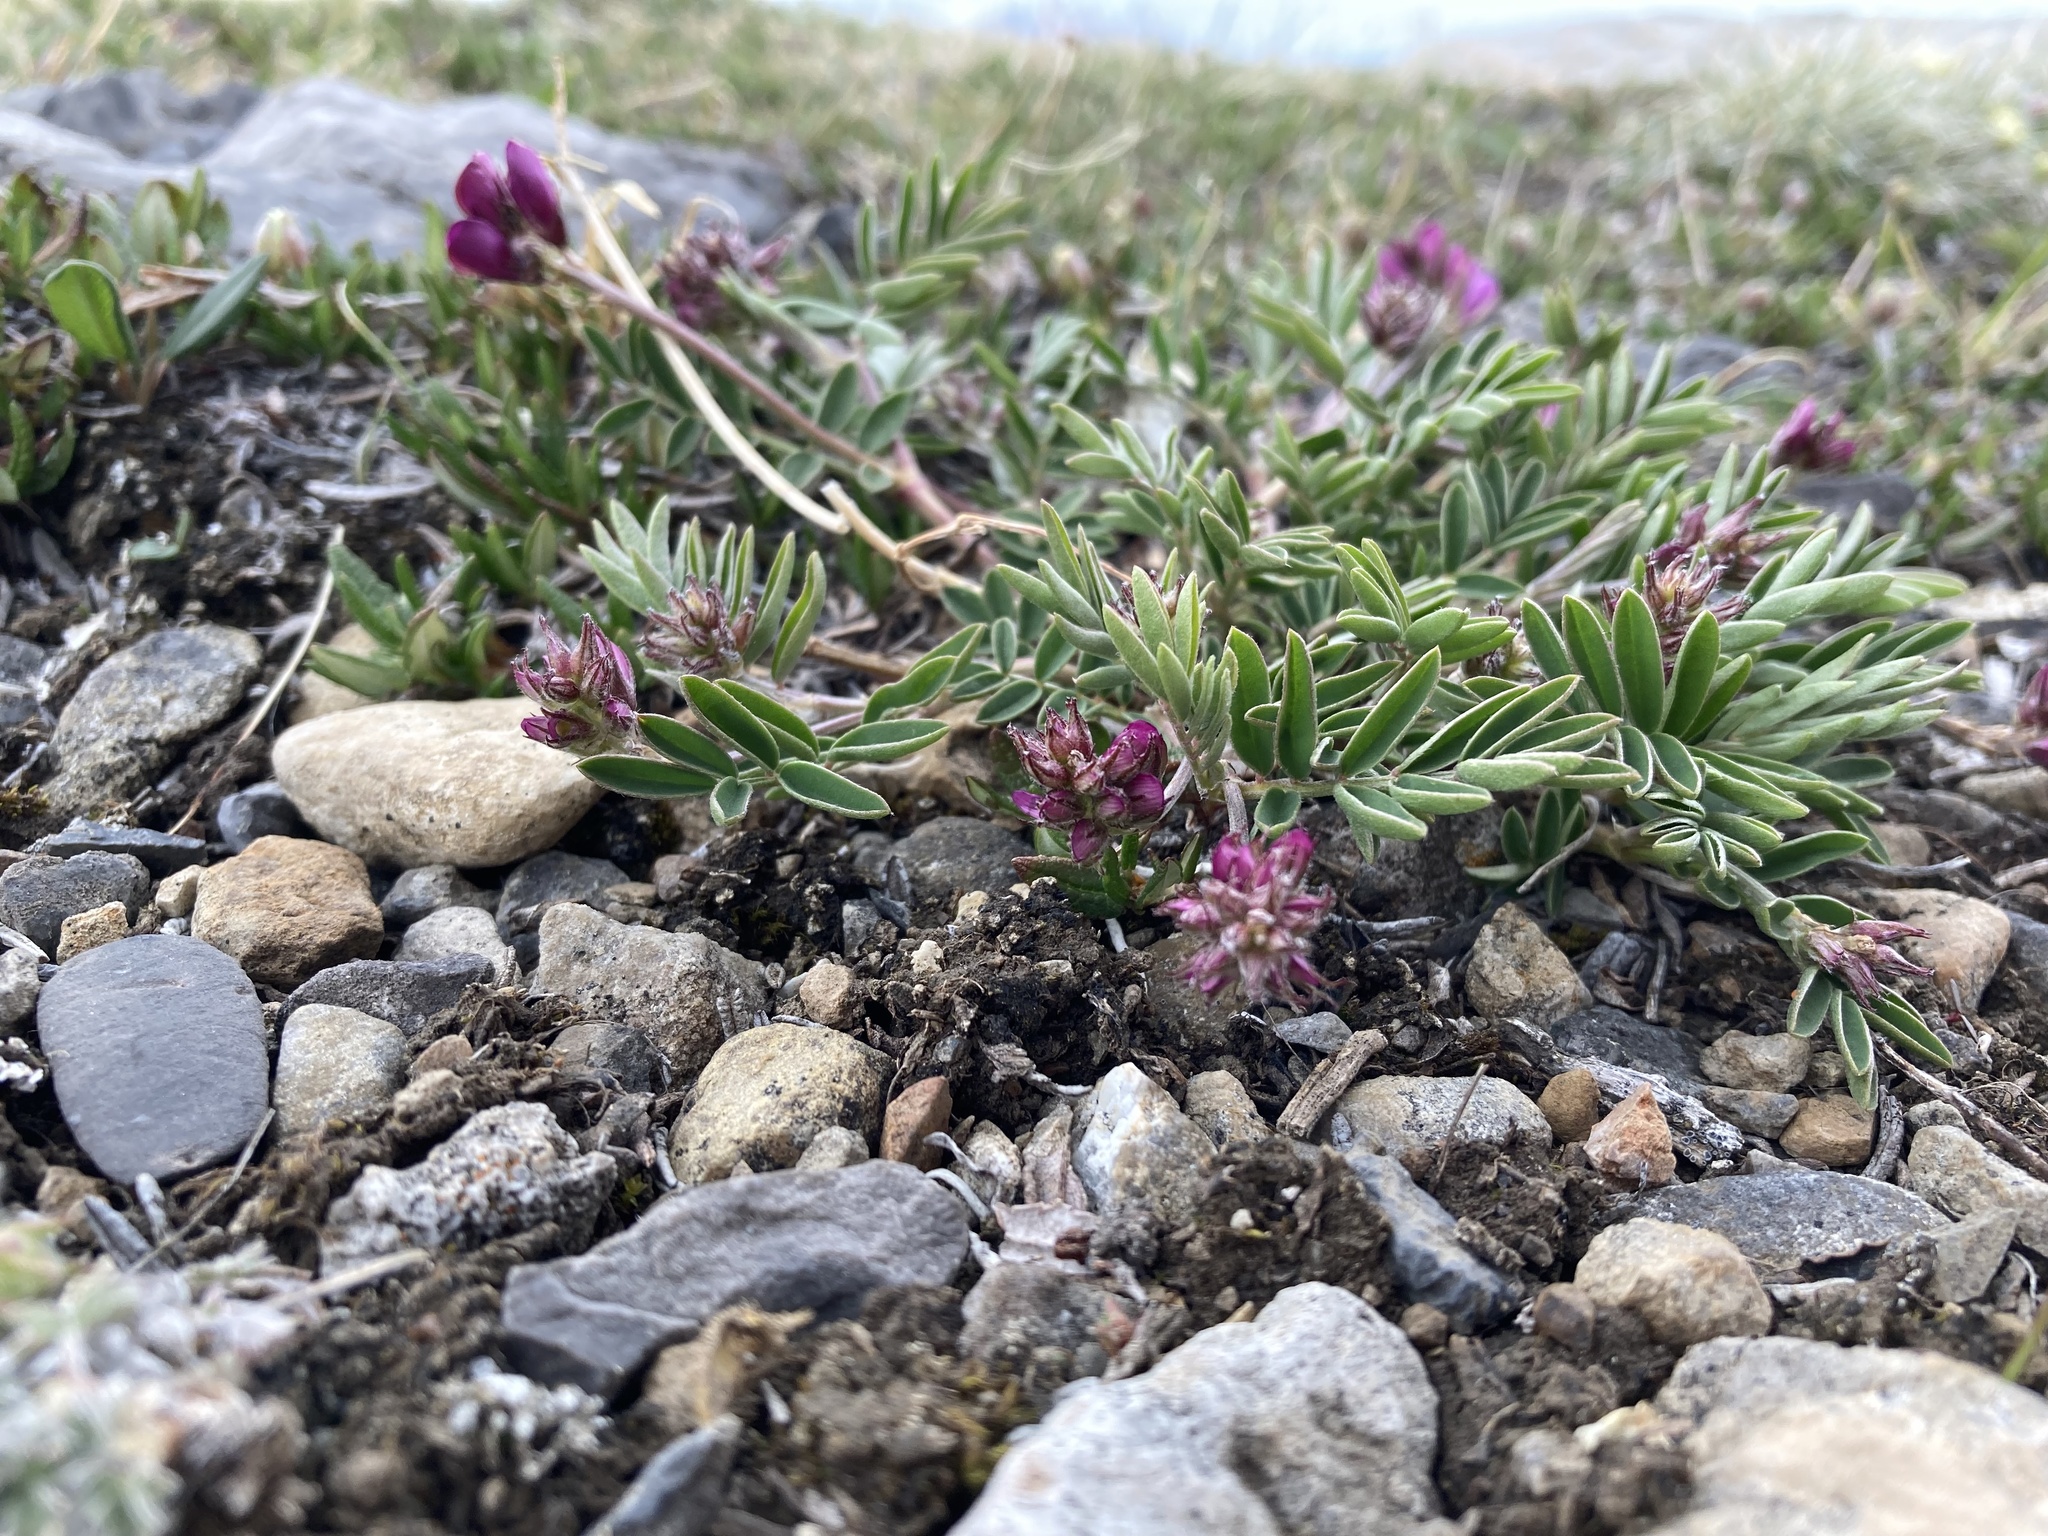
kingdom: Plantae
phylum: Tracheophyta
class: Magnoliopsida
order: Fabales
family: Fabaceae
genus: Hedysarum
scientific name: Hedysarum boreale
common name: Northern sweet-vetch
